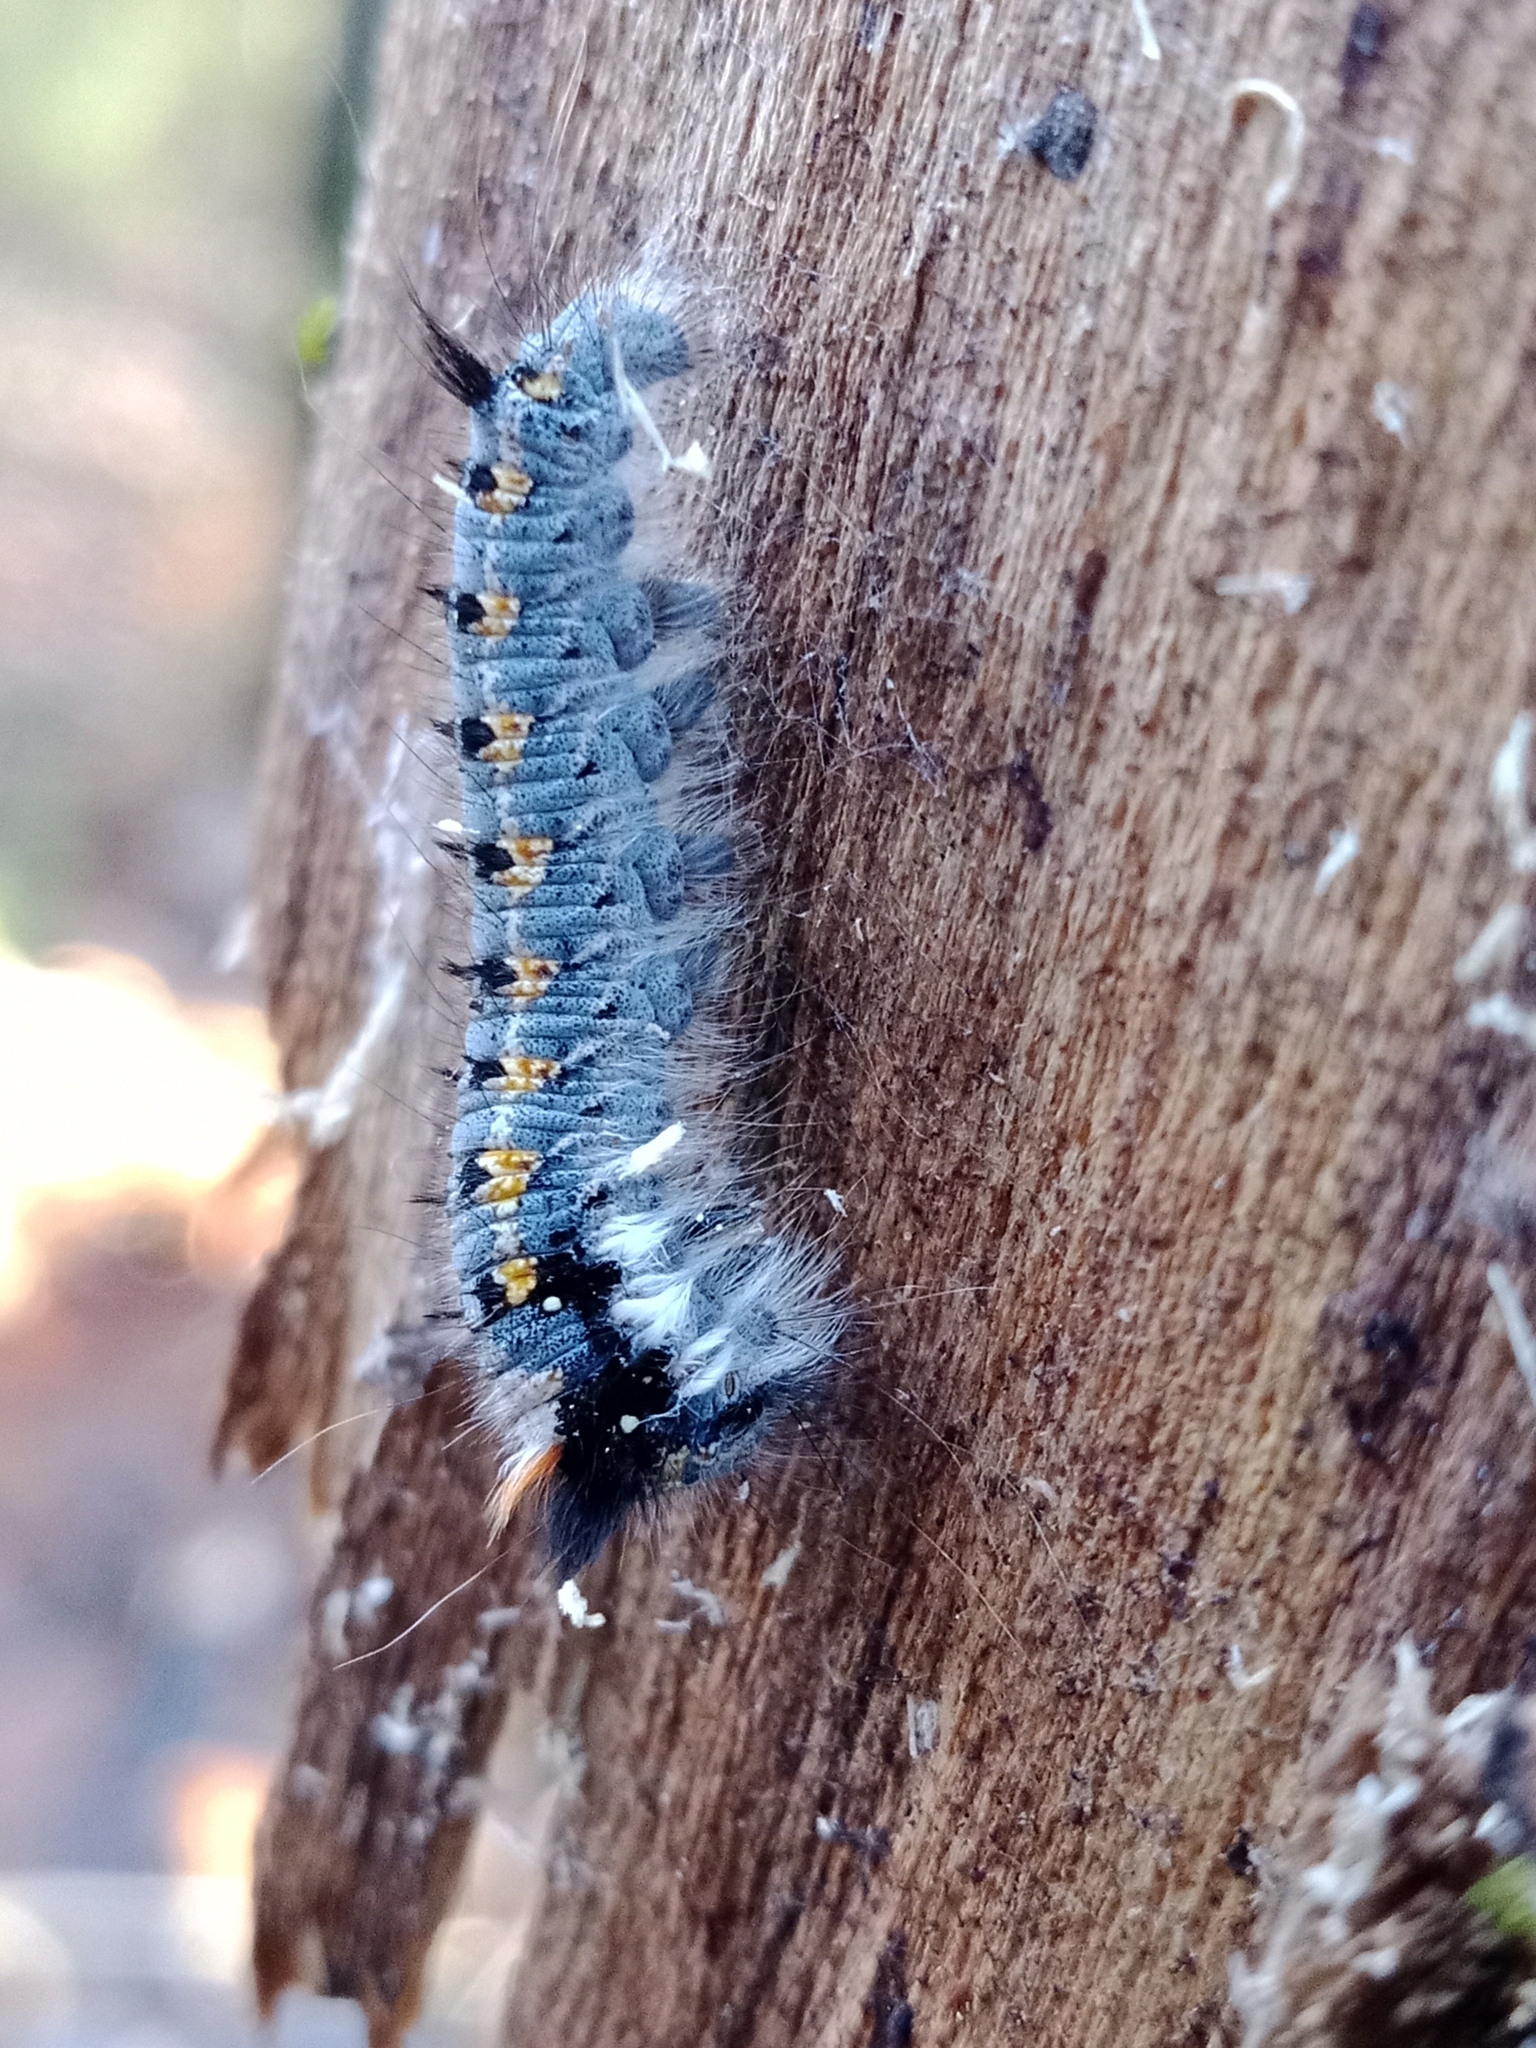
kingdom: Animalia
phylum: Arthropoda
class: Insecta
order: Lepidoptera
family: Lasiocampidae
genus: Euthrix
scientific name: Euthrix potatoria
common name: Drinker
